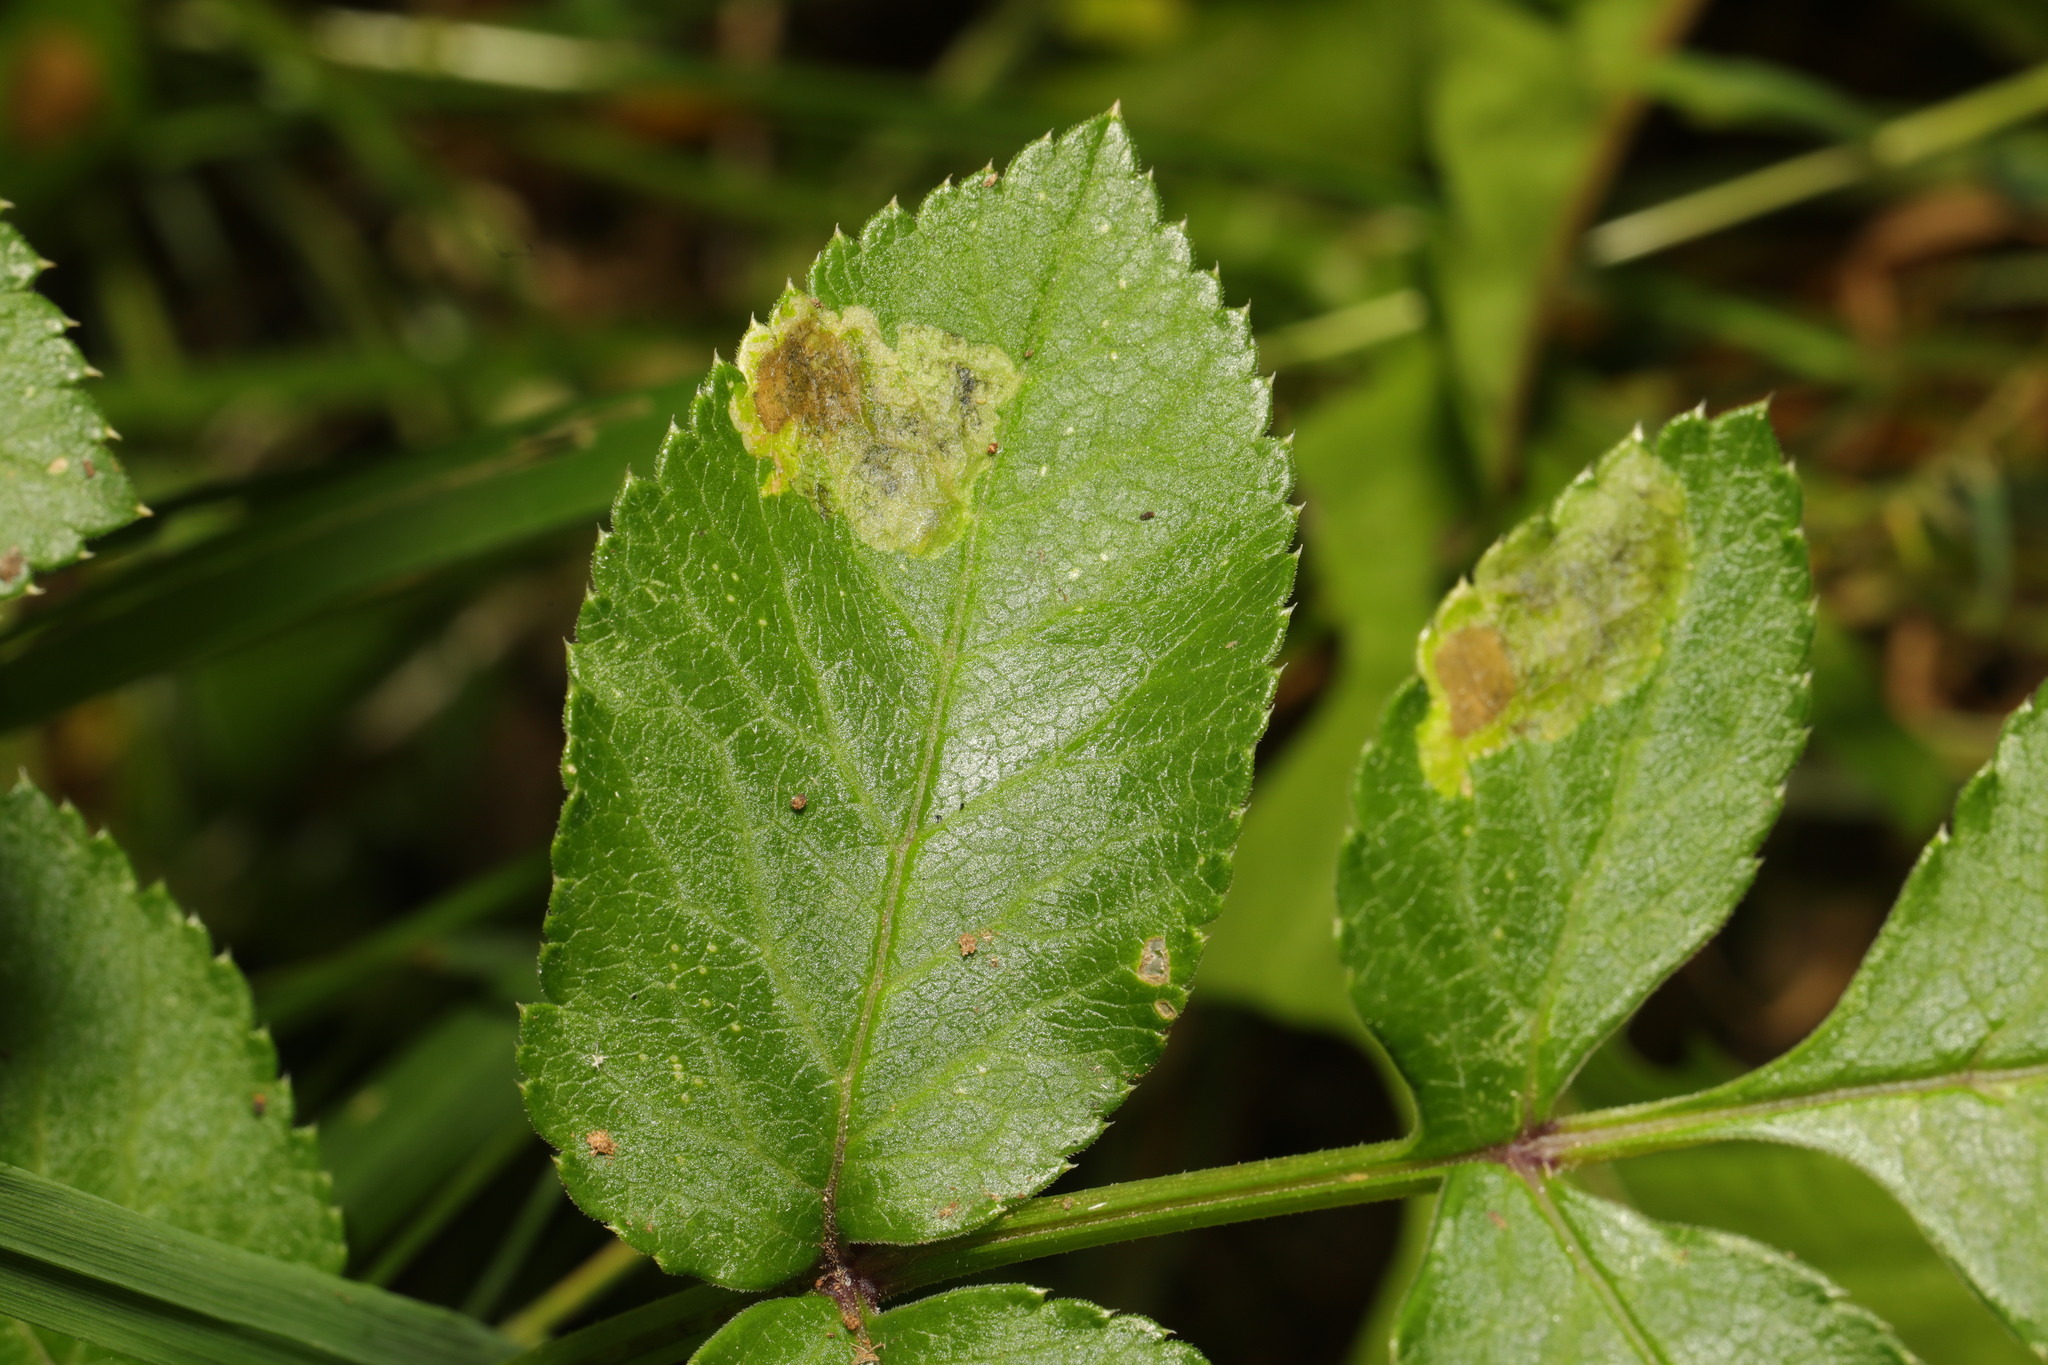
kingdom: Animalia
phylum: Arthropoda
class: Insecta
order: Diptera
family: Agromyzidae
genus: Phytomyza
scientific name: Phytomyza angelicae
